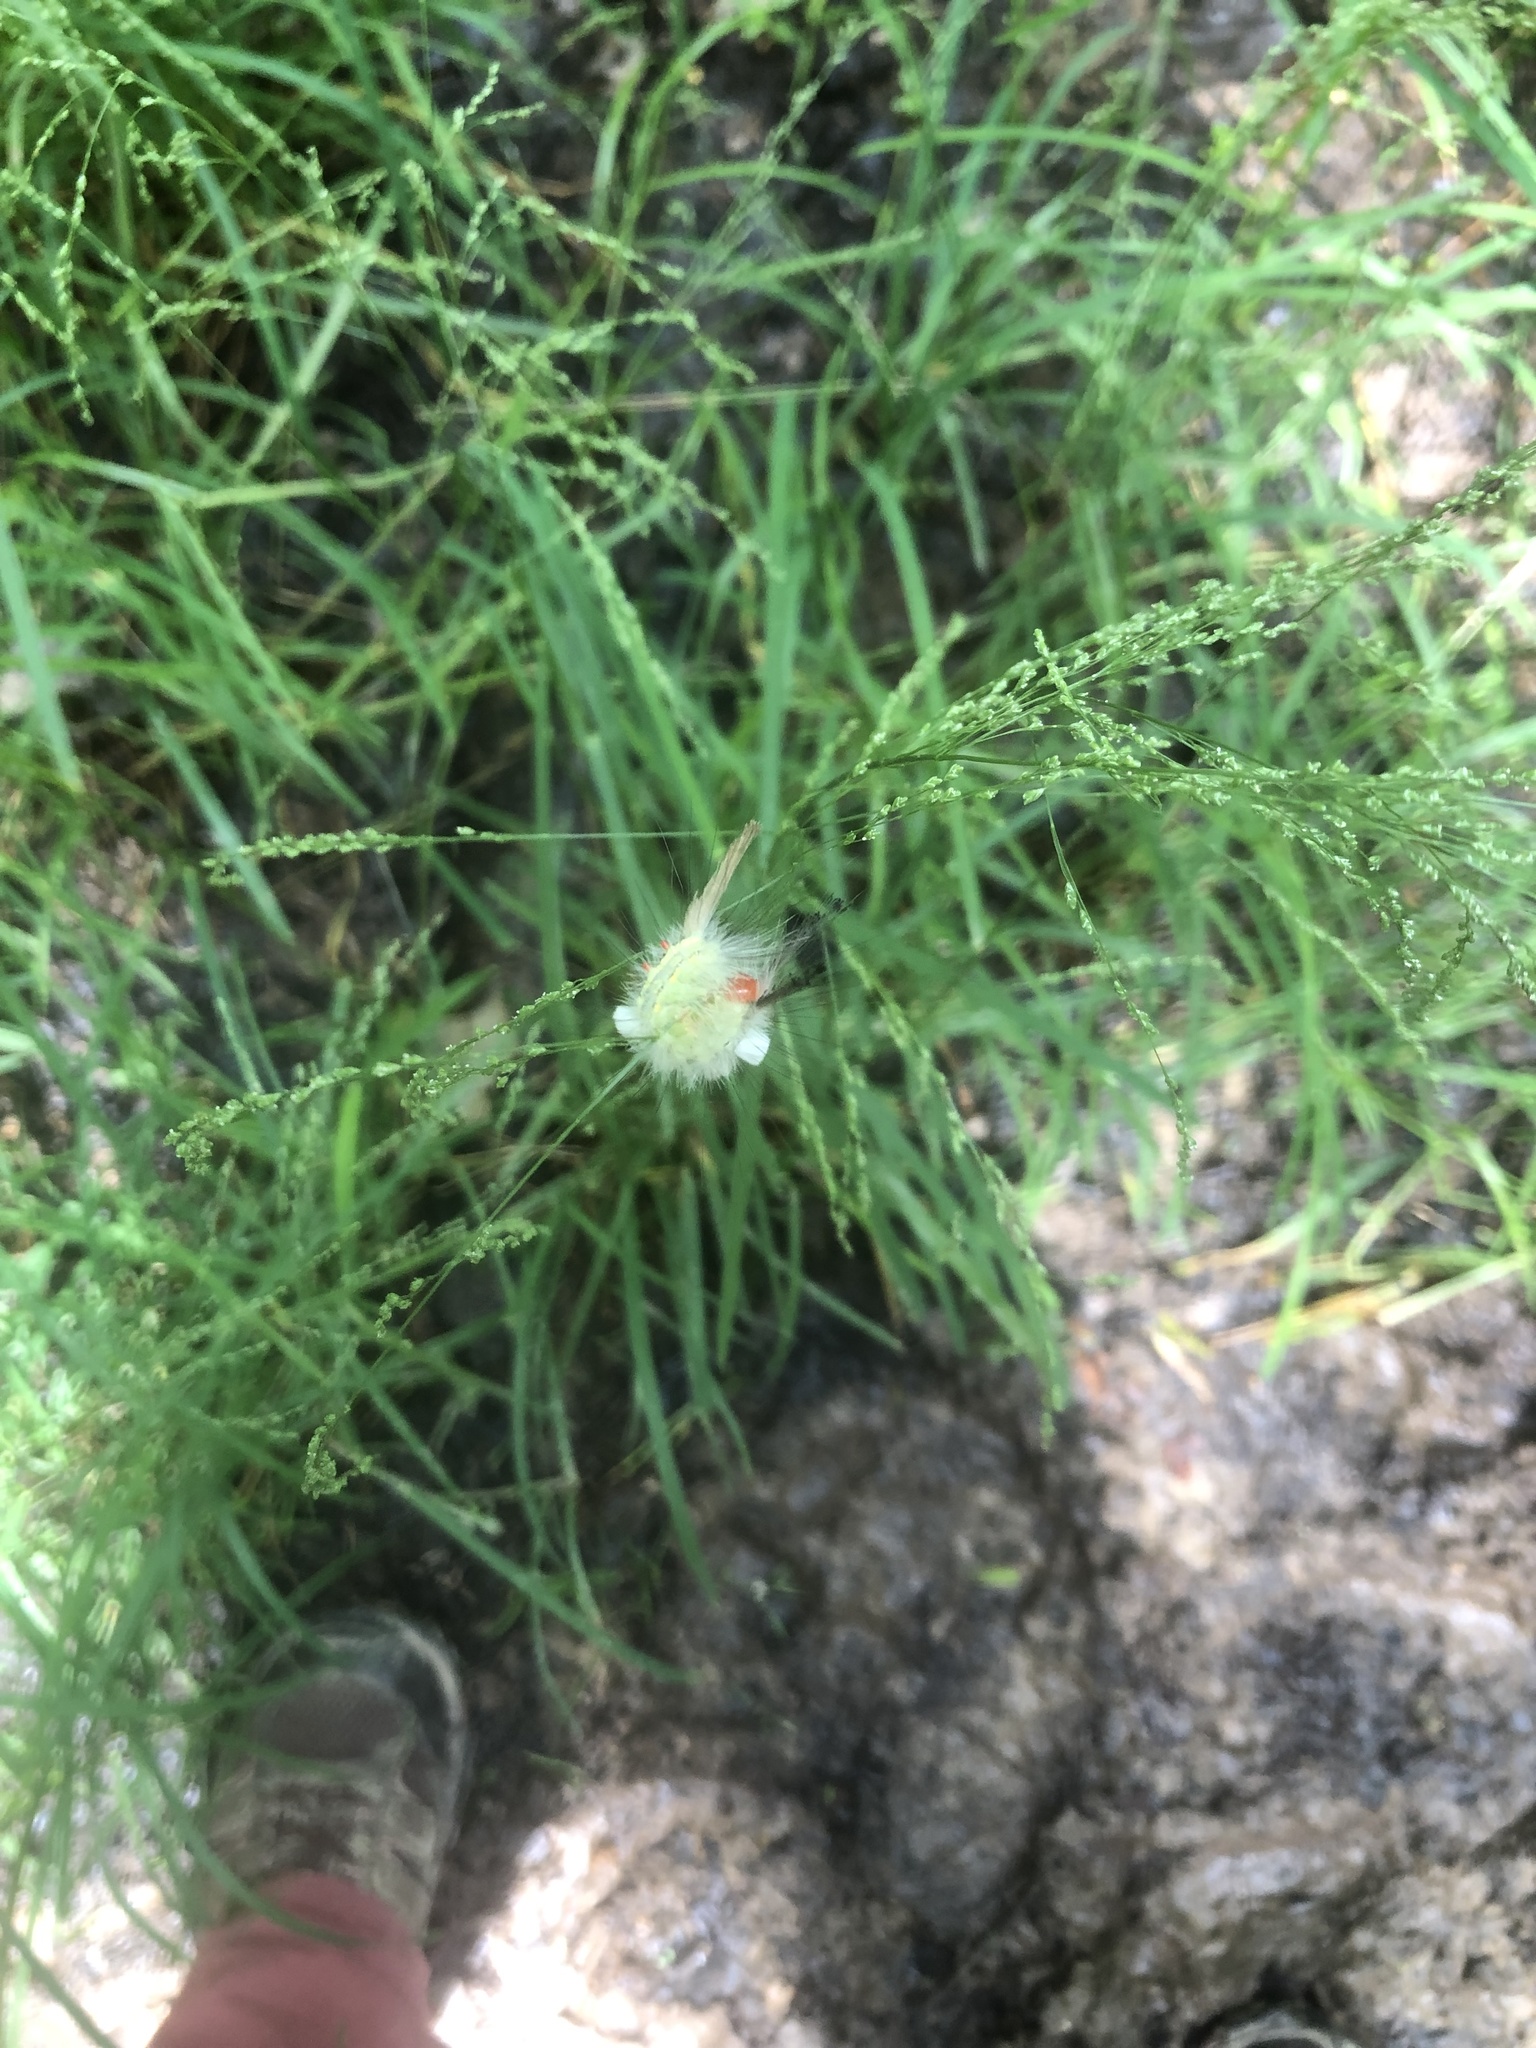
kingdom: Animalia
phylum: Arthropoda
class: Insecta
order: Lepidoptera
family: Erebidae
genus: Orgyia
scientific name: Orgyia leucostigma
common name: White-marked tussock moth
